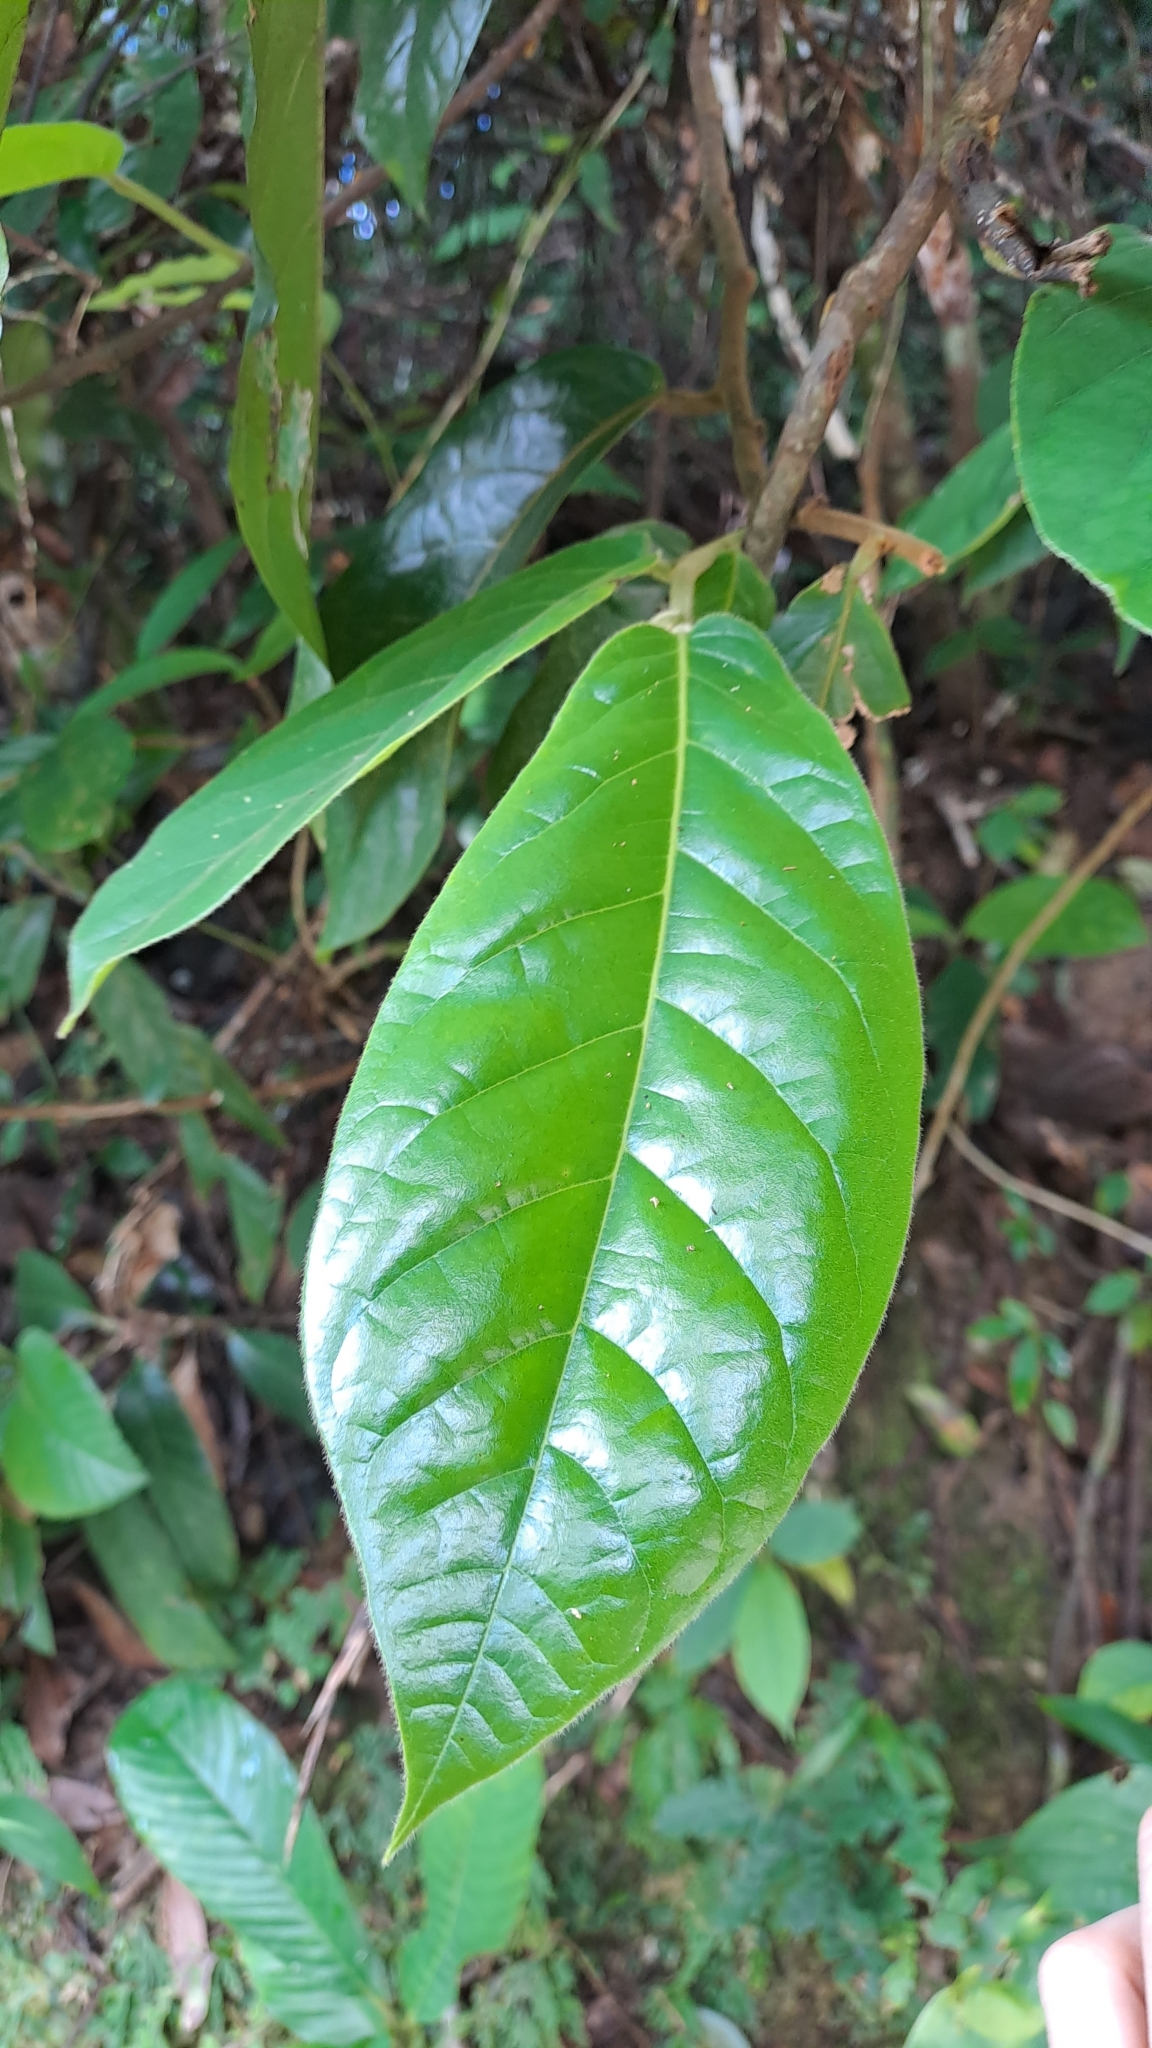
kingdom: Plantae
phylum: Tracheophyta
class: Magnoliopsida
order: Magnoliales
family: Annonaceae
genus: Uvaria
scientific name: Uvaria grandiflora
